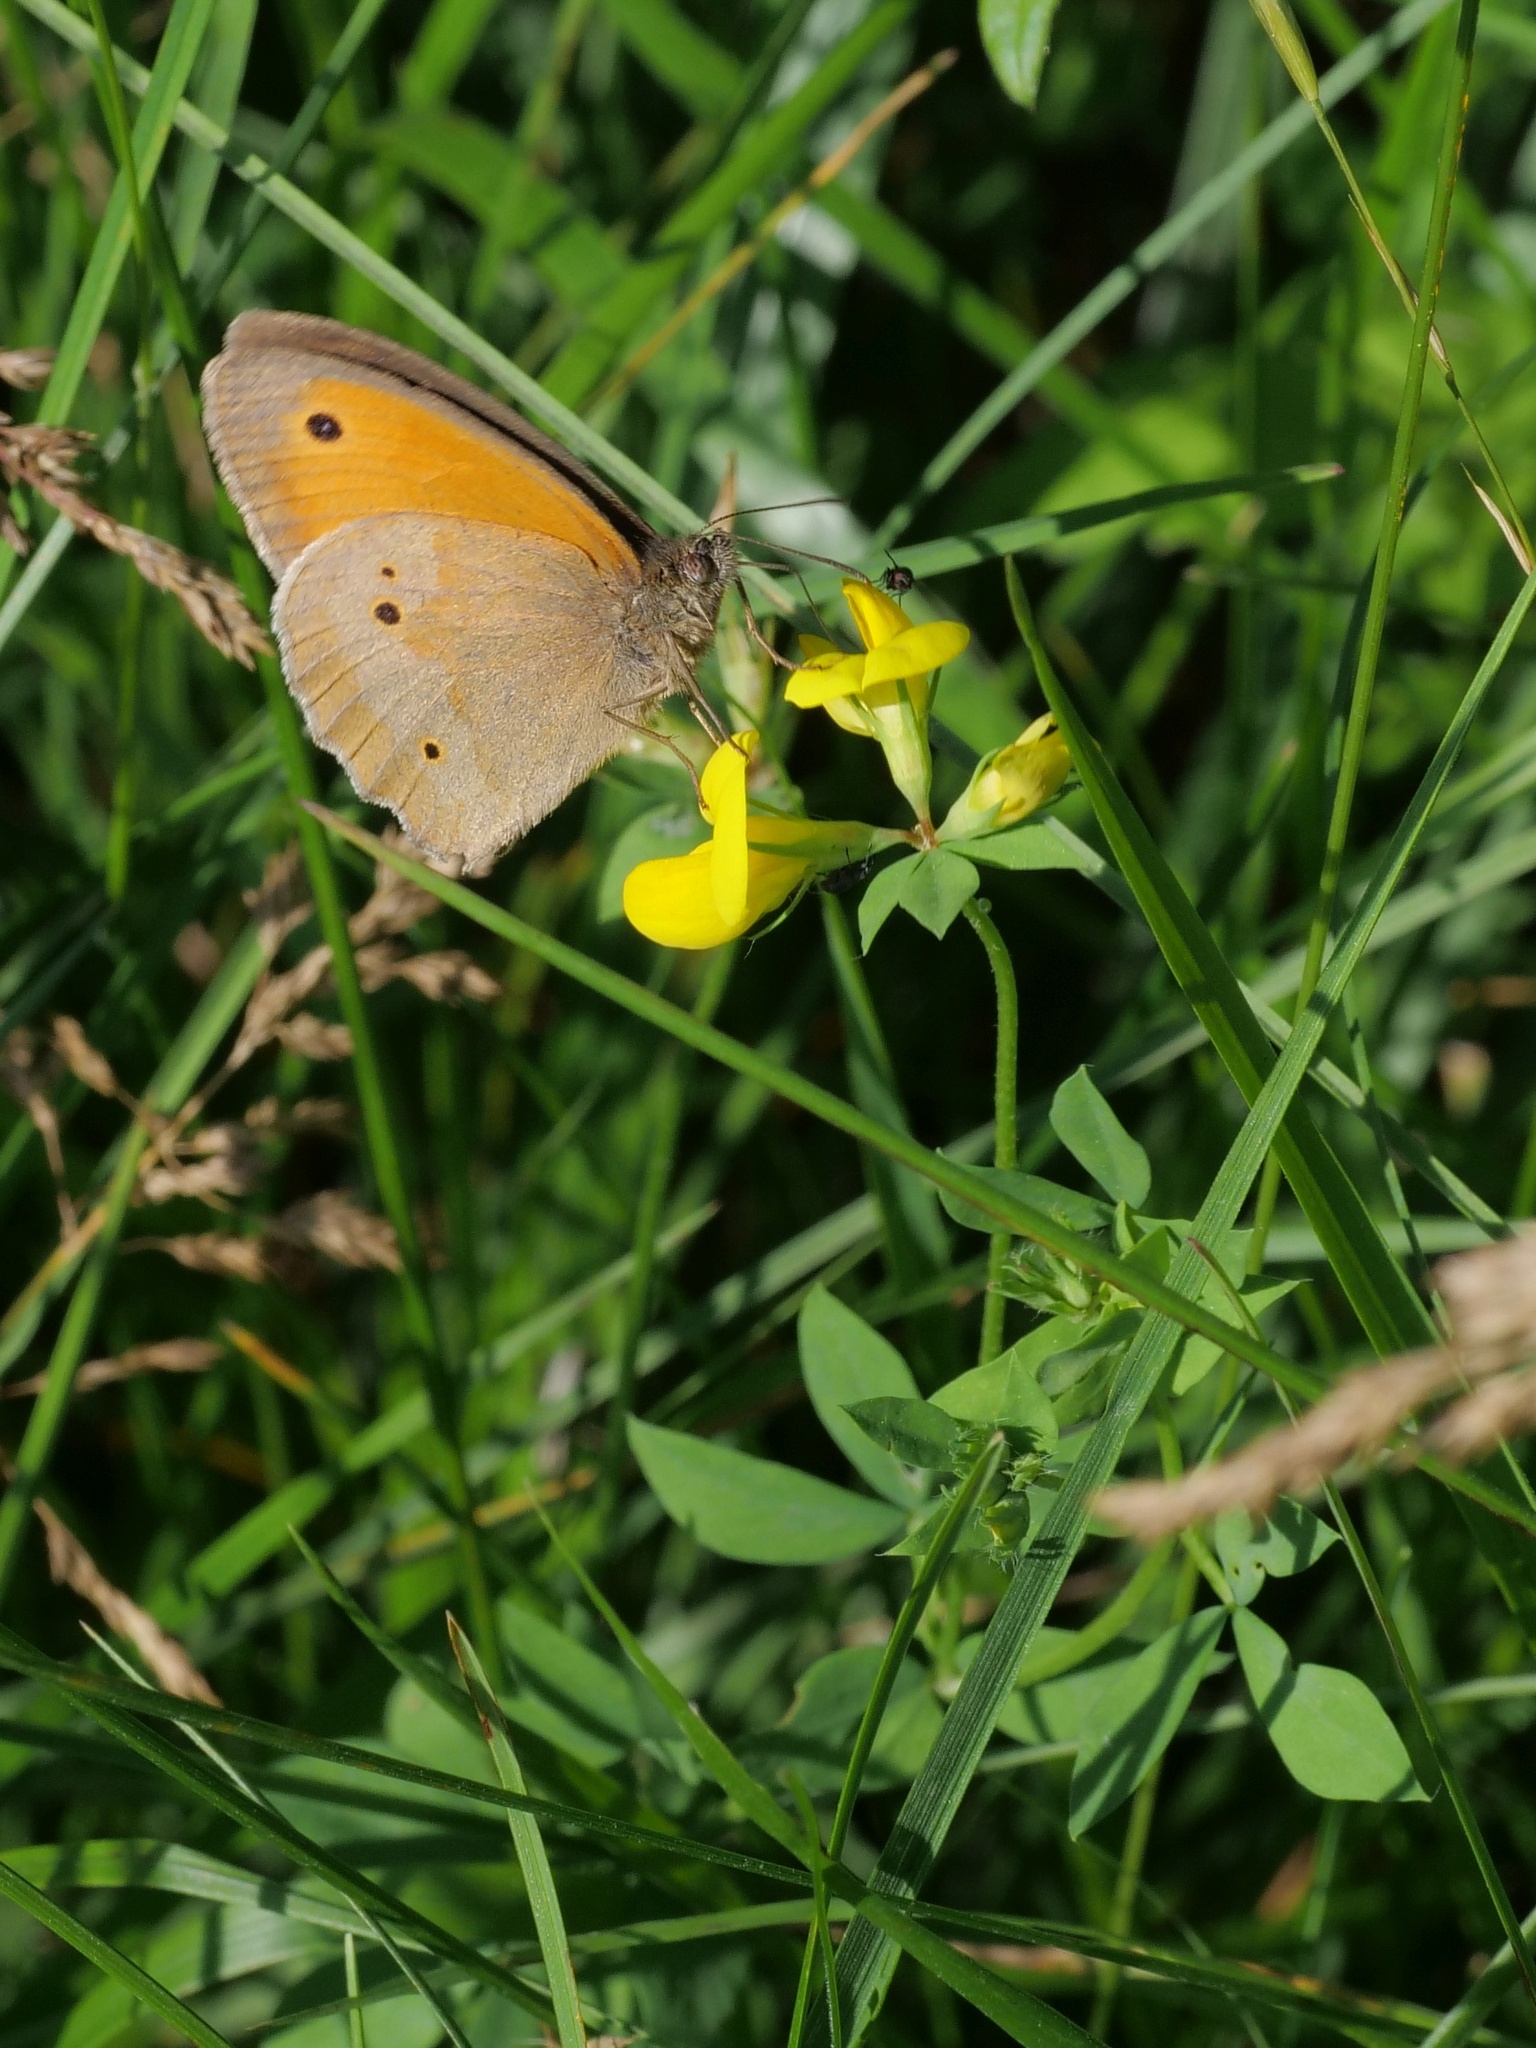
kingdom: Animalia
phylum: Arthropoda
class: Insecta
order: Lepidoptera
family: Nymphalidae
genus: Maniola
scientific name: Maniola jurtina
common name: Meadow brown
